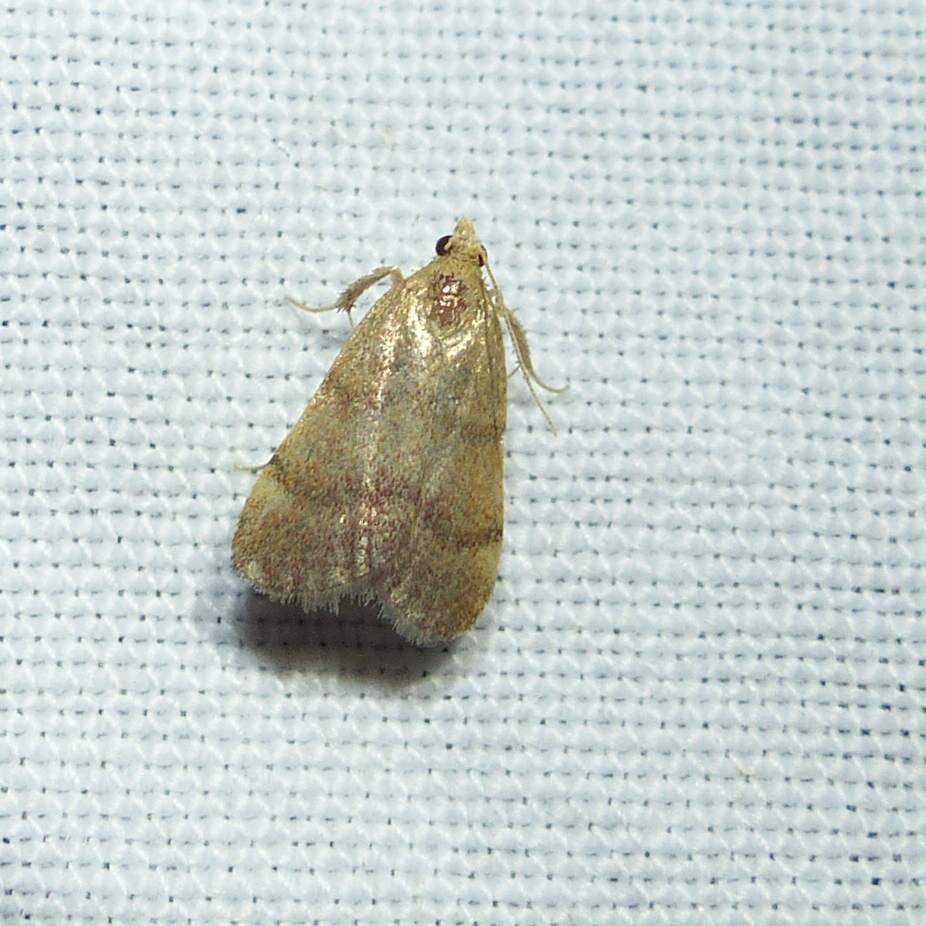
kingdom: Animalia
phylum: Arthropoda
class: Insecta
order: Lepidoptera
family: Pyralidae
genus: Condylolomia
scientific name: Condylolomia participialis
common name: Drab condylolomia moth
